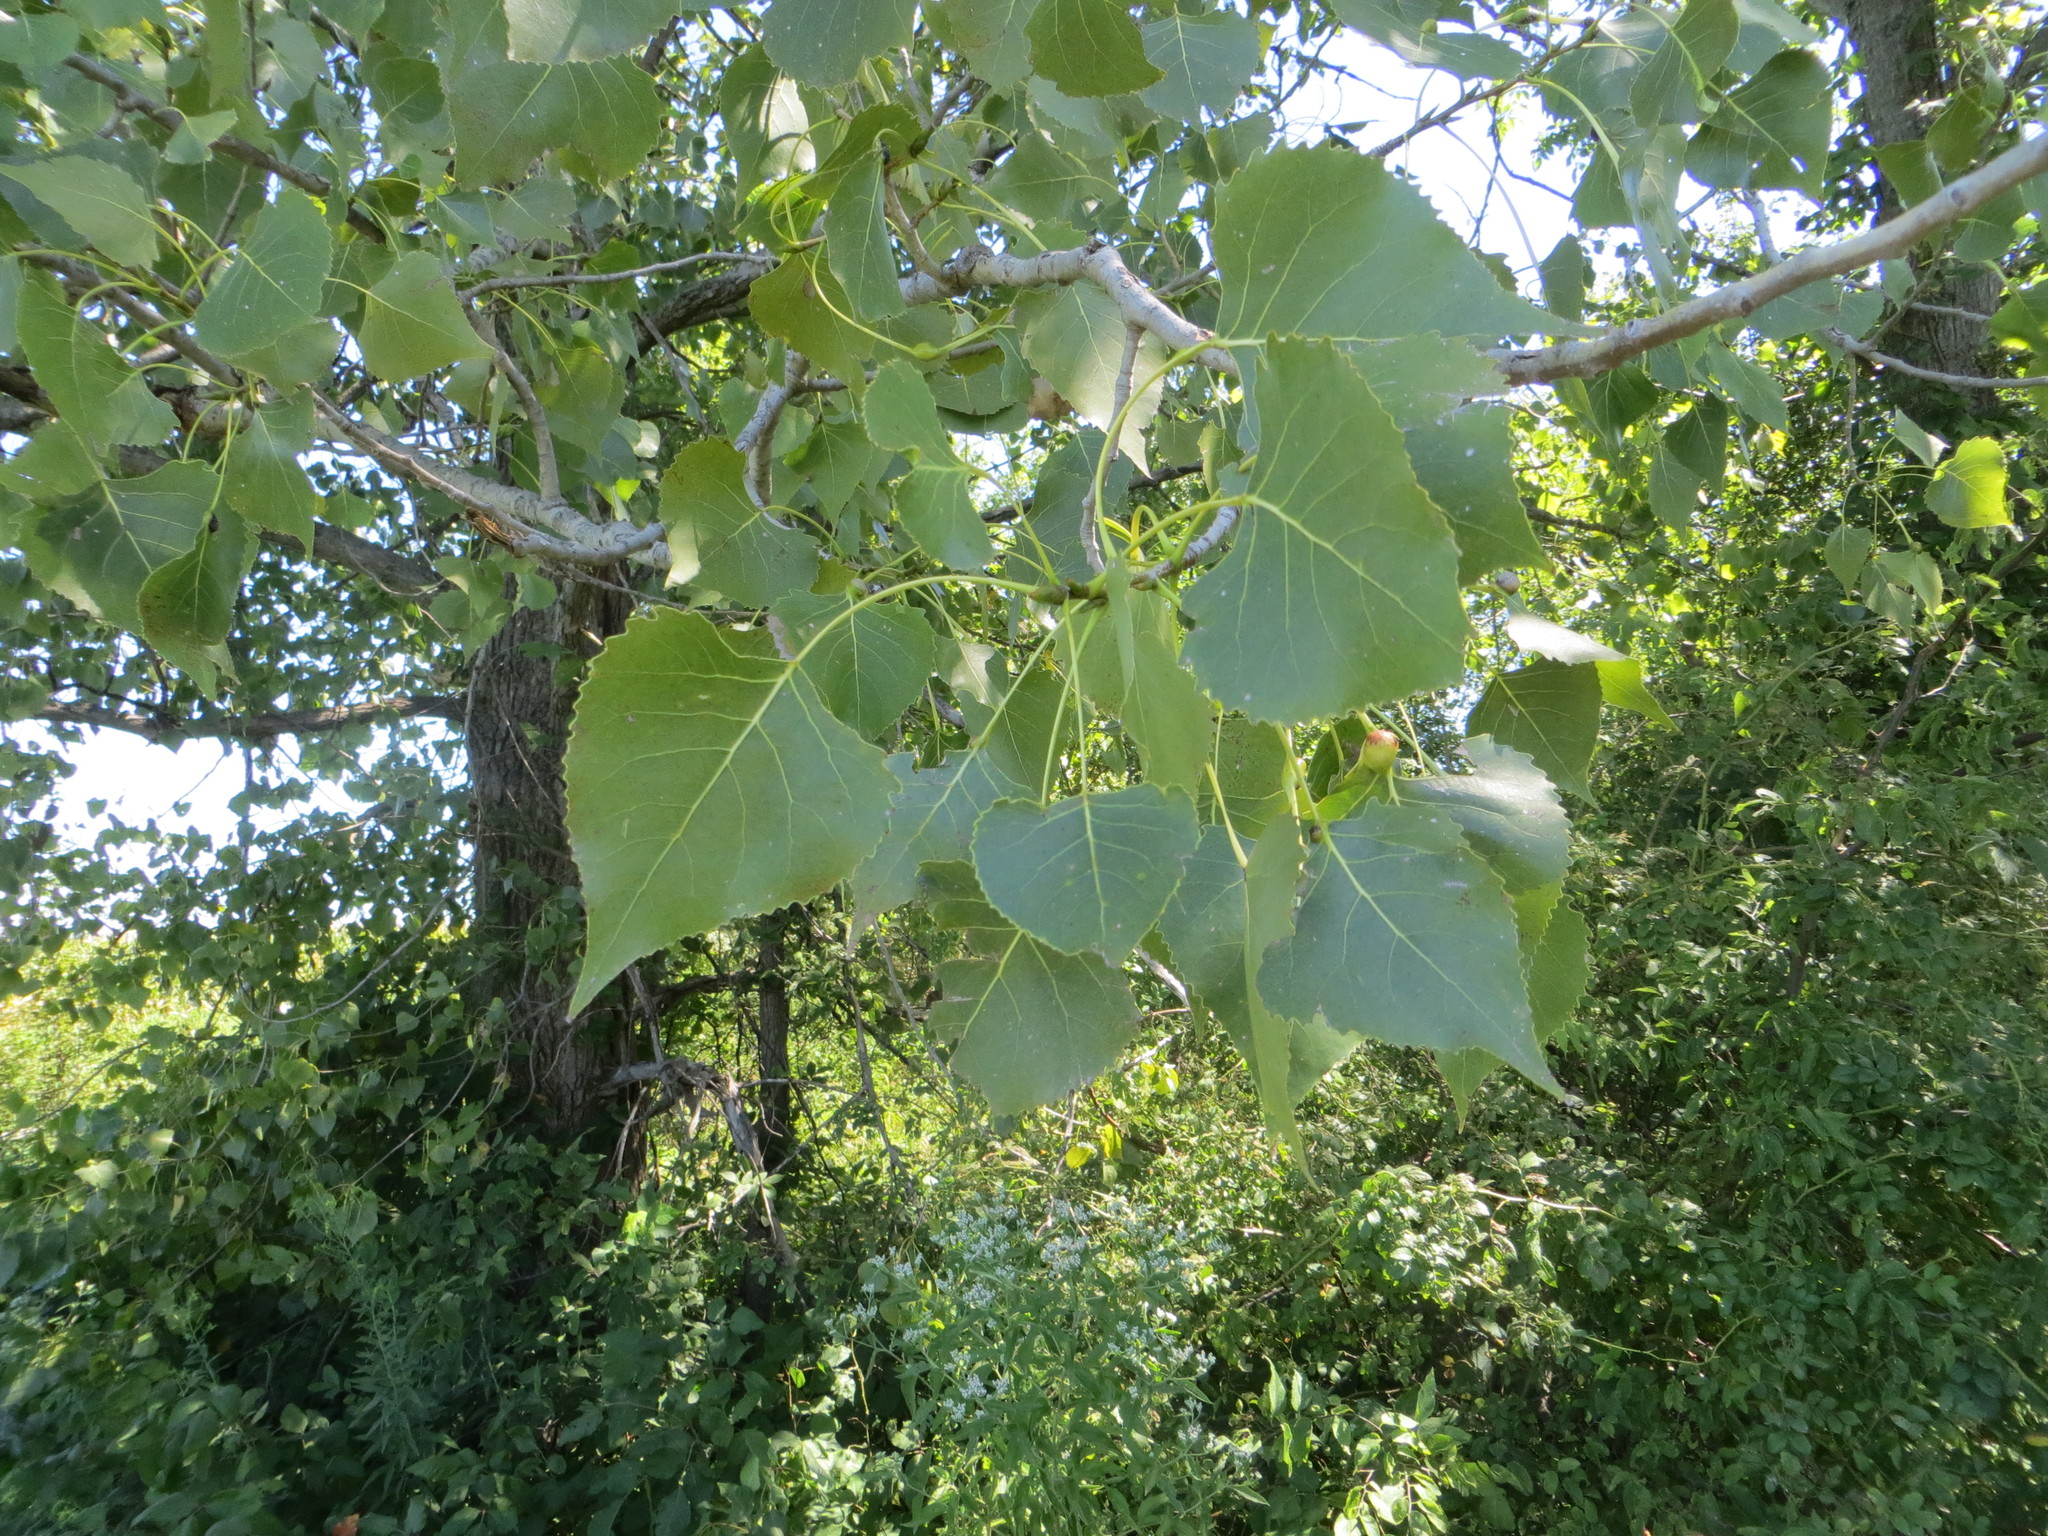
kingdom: Plantae
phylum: Tracheophyta
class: Magnoliopsida
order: Malpighiales
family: Salicaceae
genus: Populus
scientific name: Populus deltoides
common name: Eastern cottonwood
